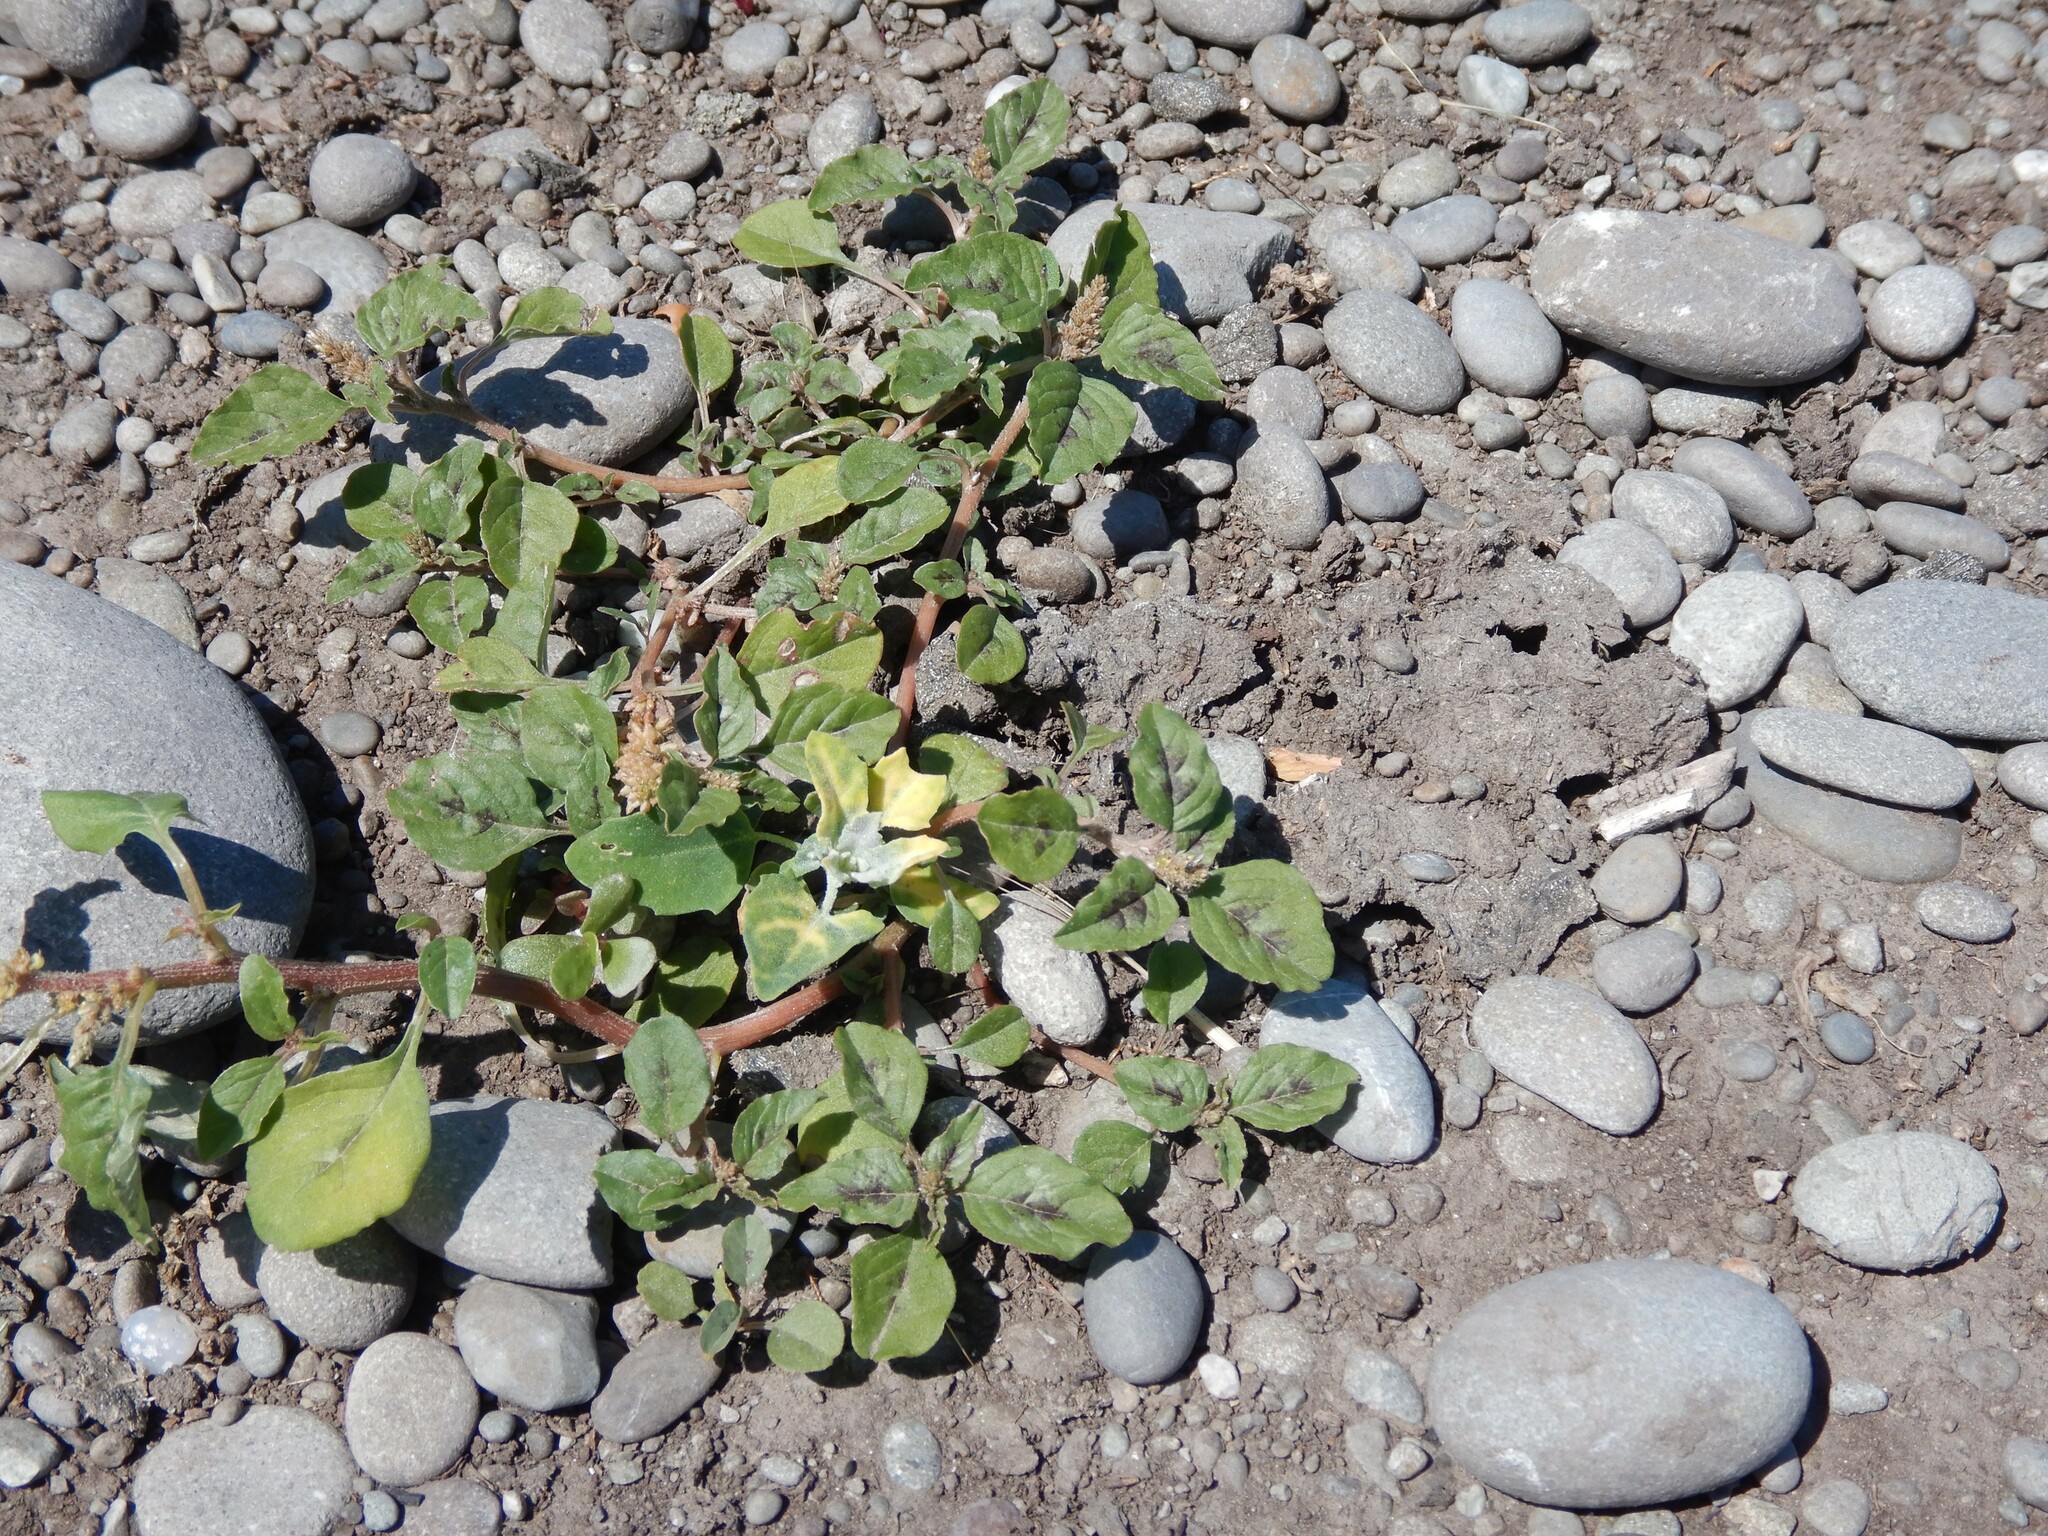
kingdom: Plantae
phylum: Tracheophyta
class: Magnoliopsida
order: Caryophyllales
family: Amaranthaceae
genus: Amaranthus
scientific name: Amaranthus deflexus
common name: Perennial pigweed
